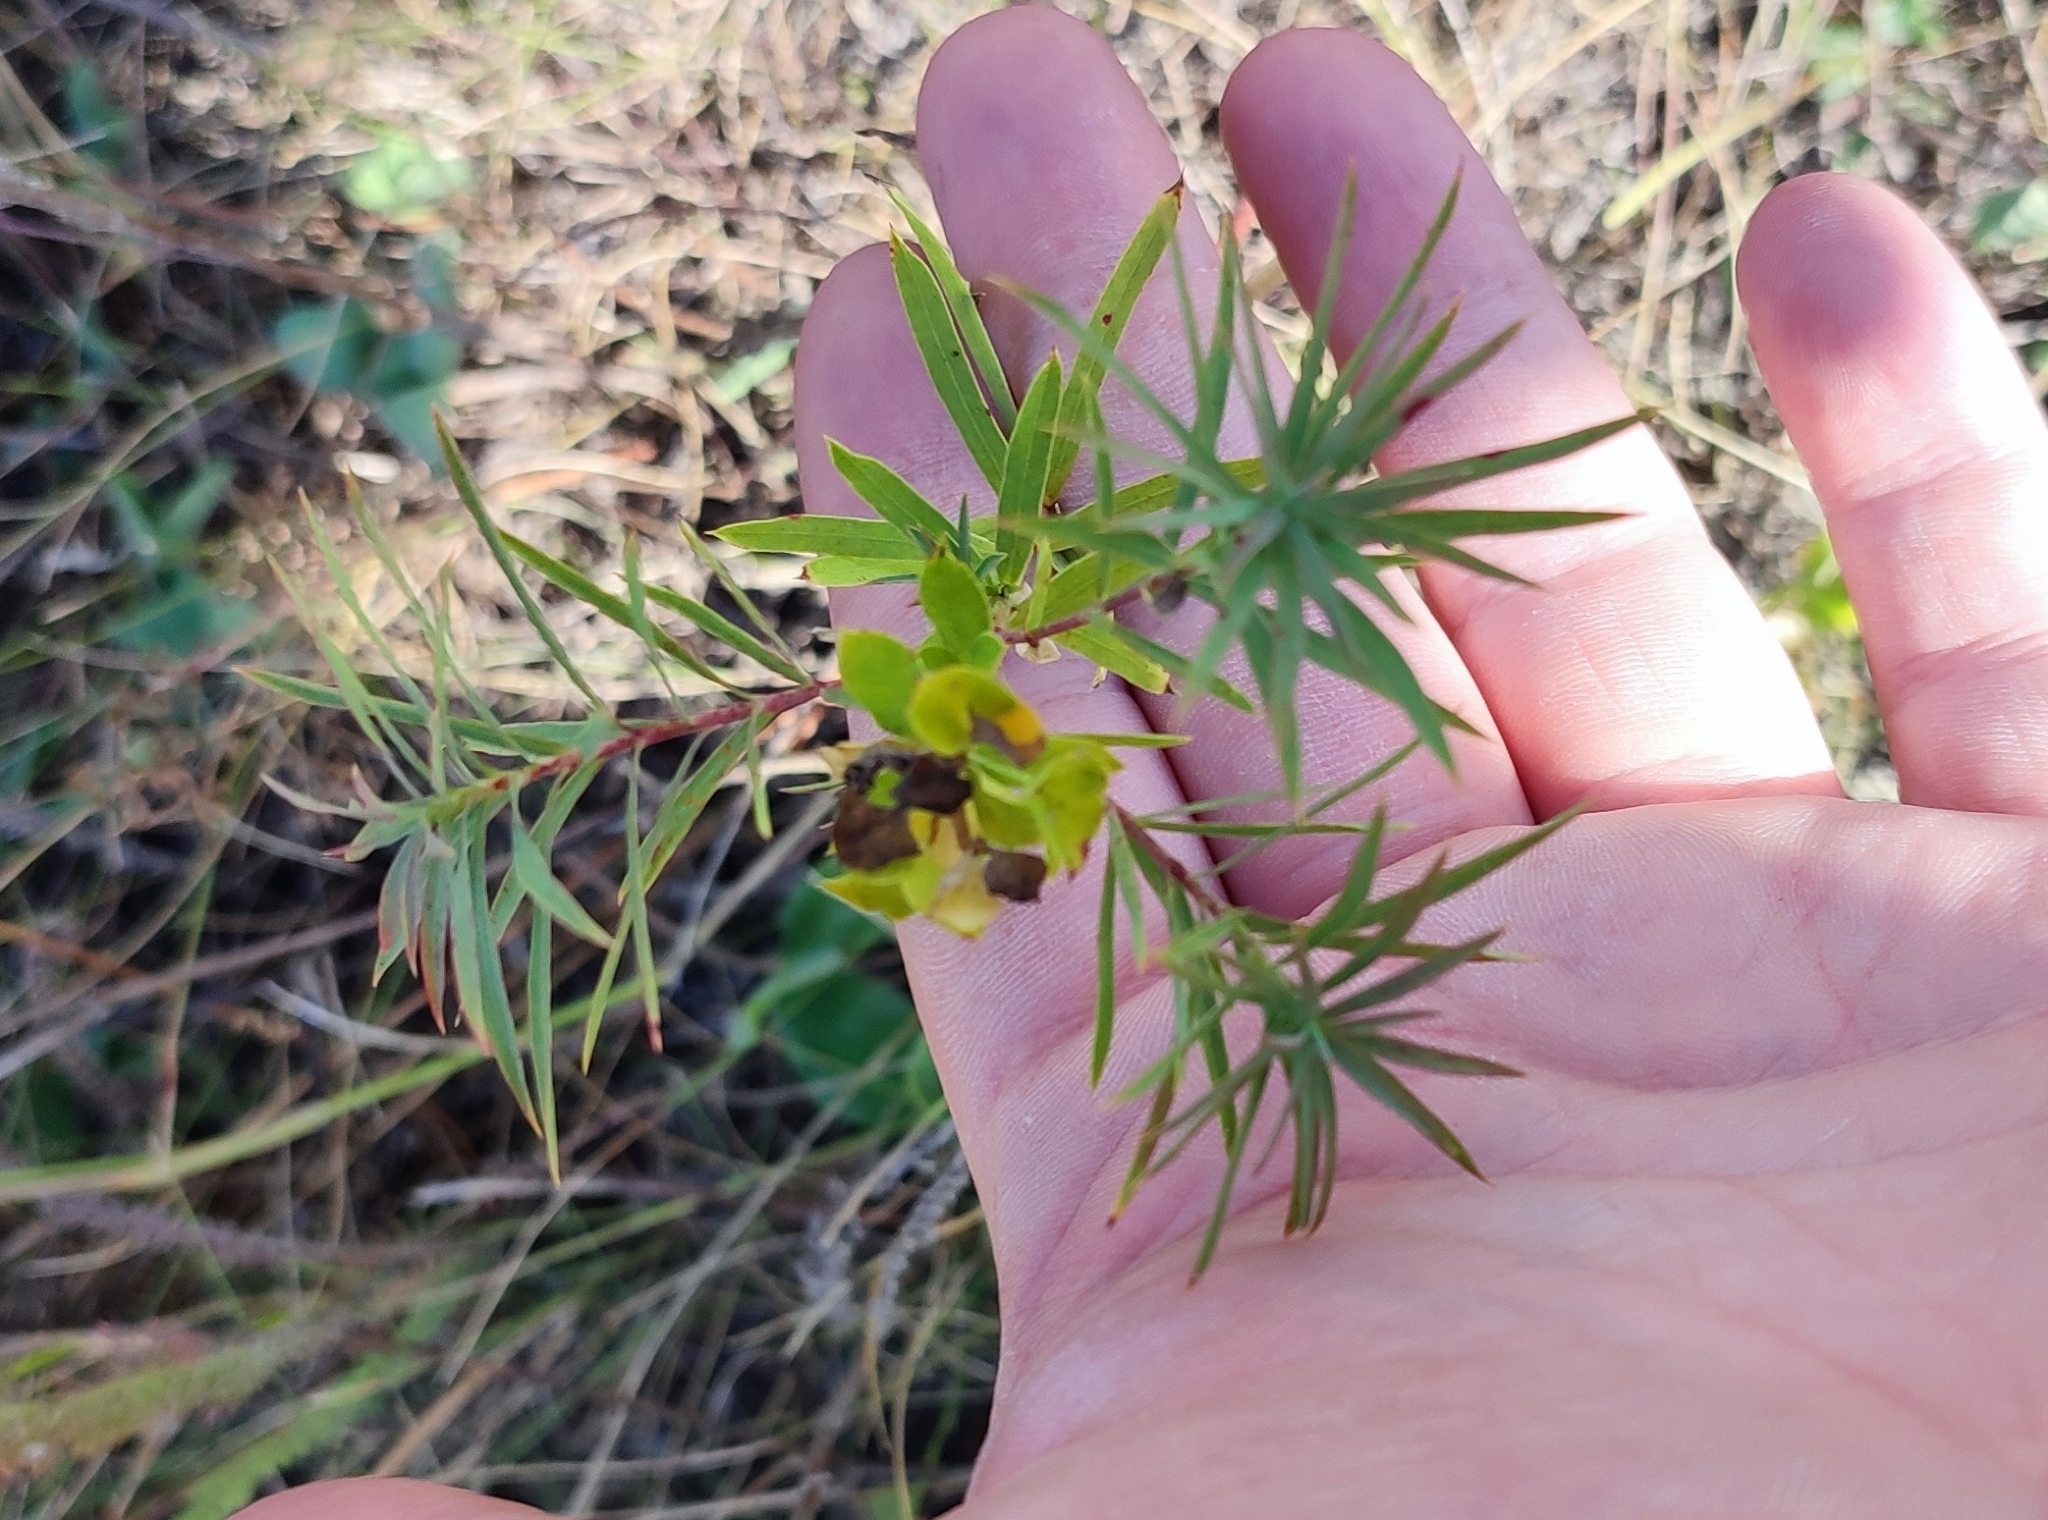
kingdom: Plantae
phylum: Tracheophyta
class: Magnoliopsida
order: Malpighiales
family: Euphorbiaceae
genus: Euphorbia
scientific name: Euphorbia virgata
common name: Leafy spurge
